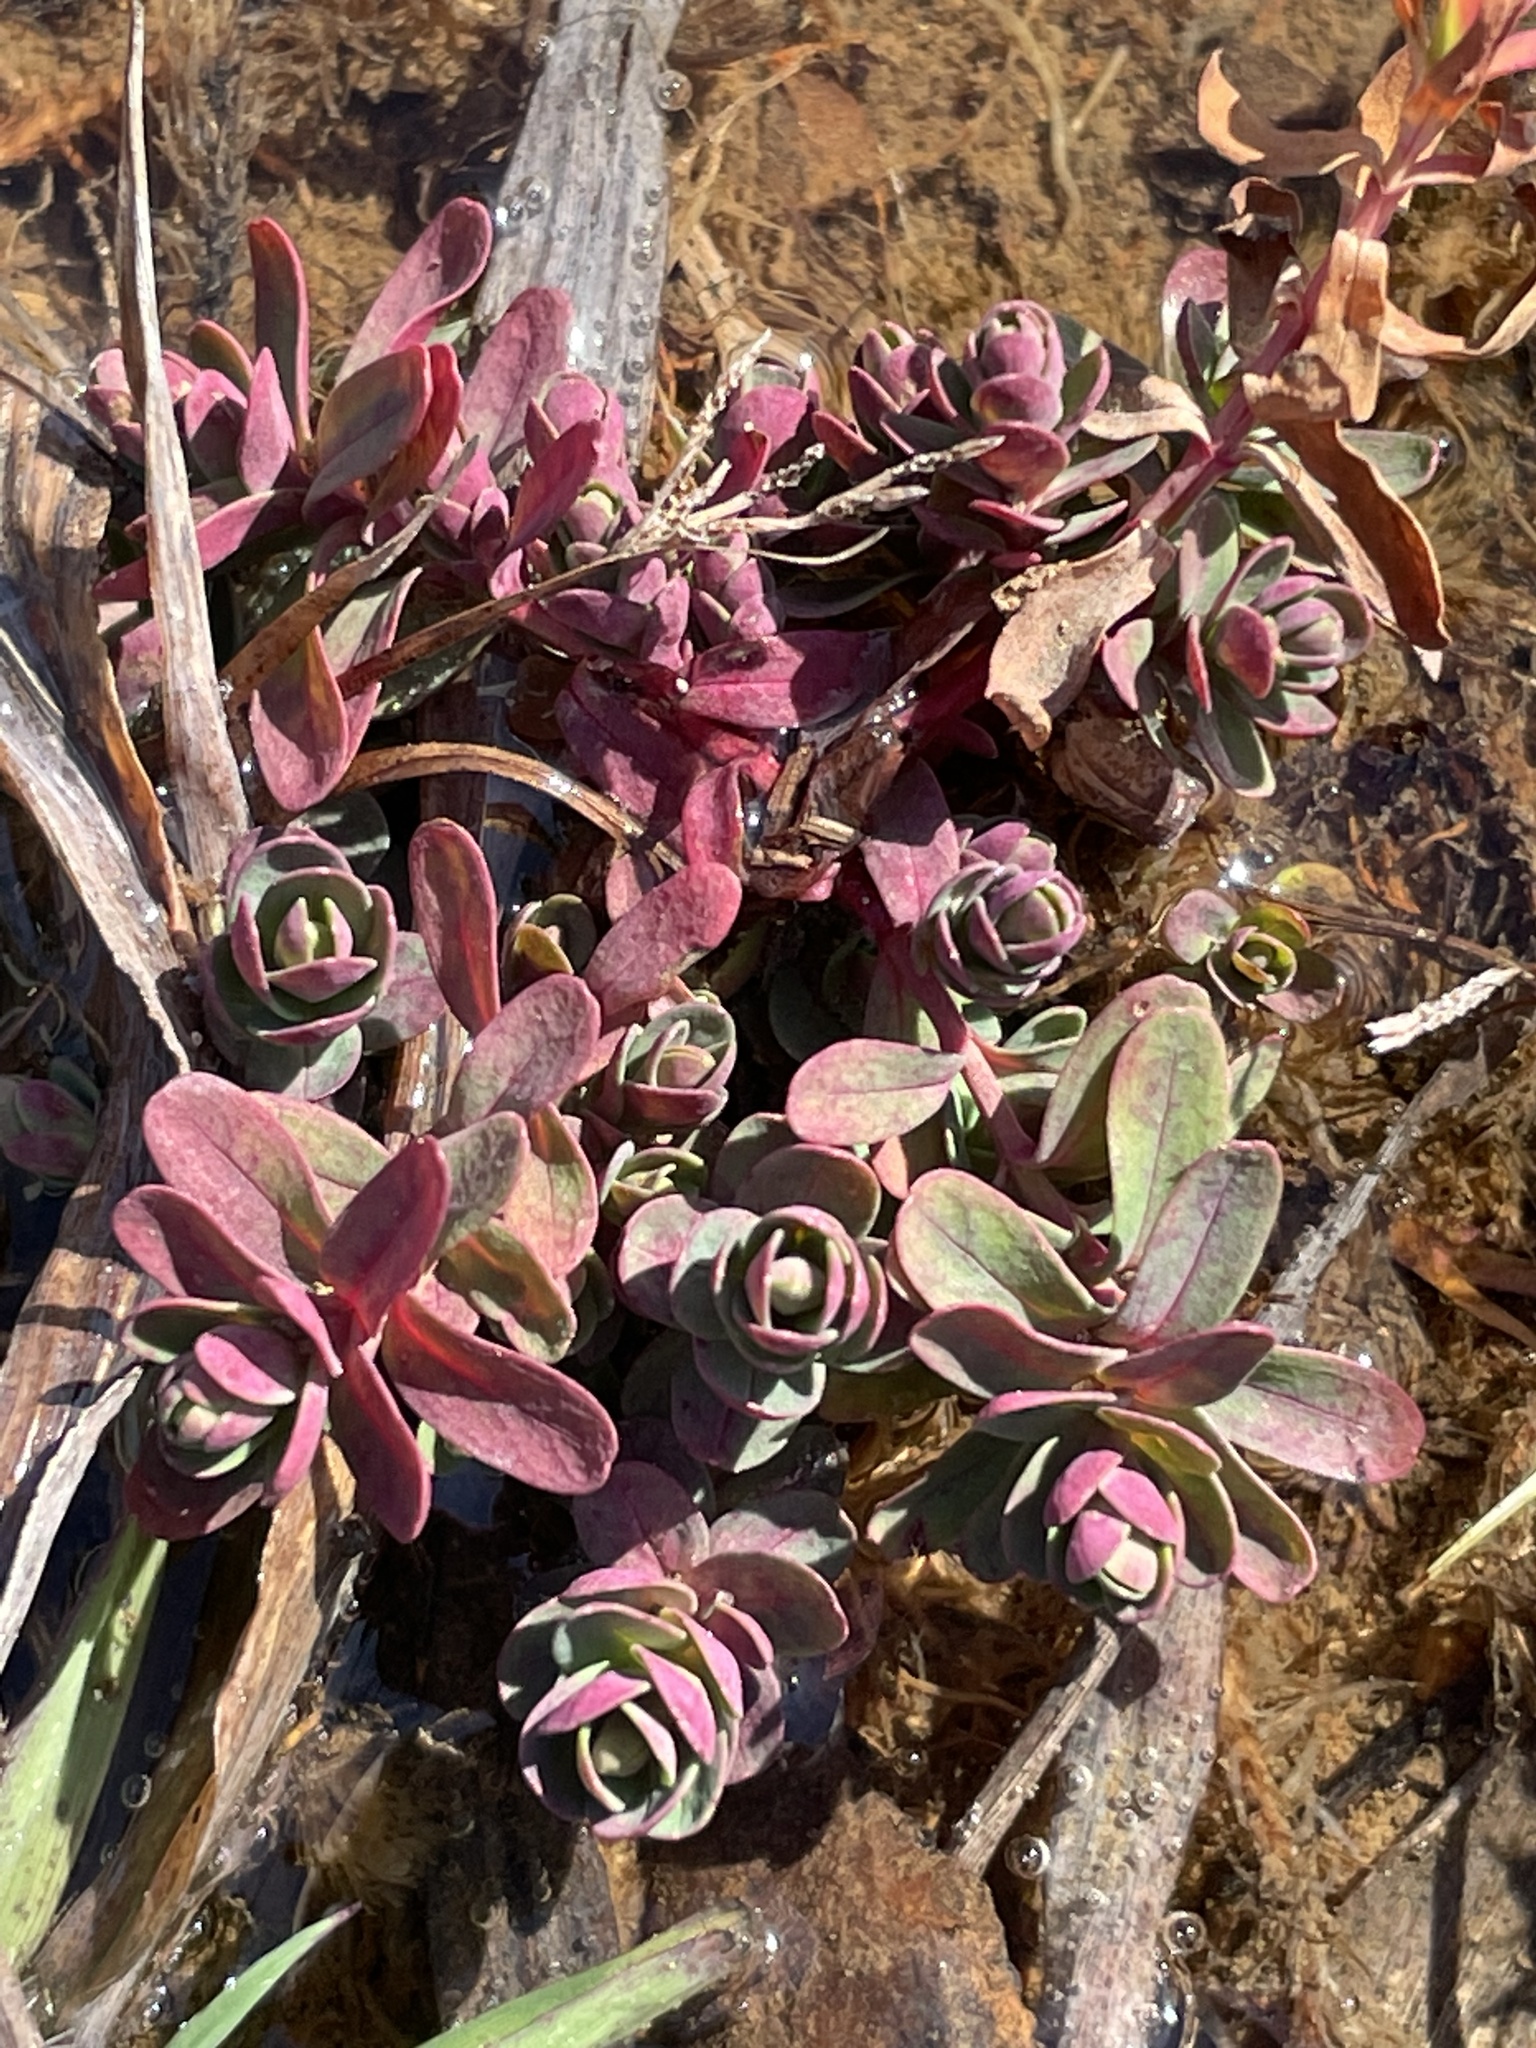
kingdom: Plantae
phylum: Tracheophyta
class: Magnoliopsida
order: Malpighiales
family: Hypericaceae
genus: Hypericum
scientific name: Hypericum mutilum
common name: Dwarf st. john's-wort
